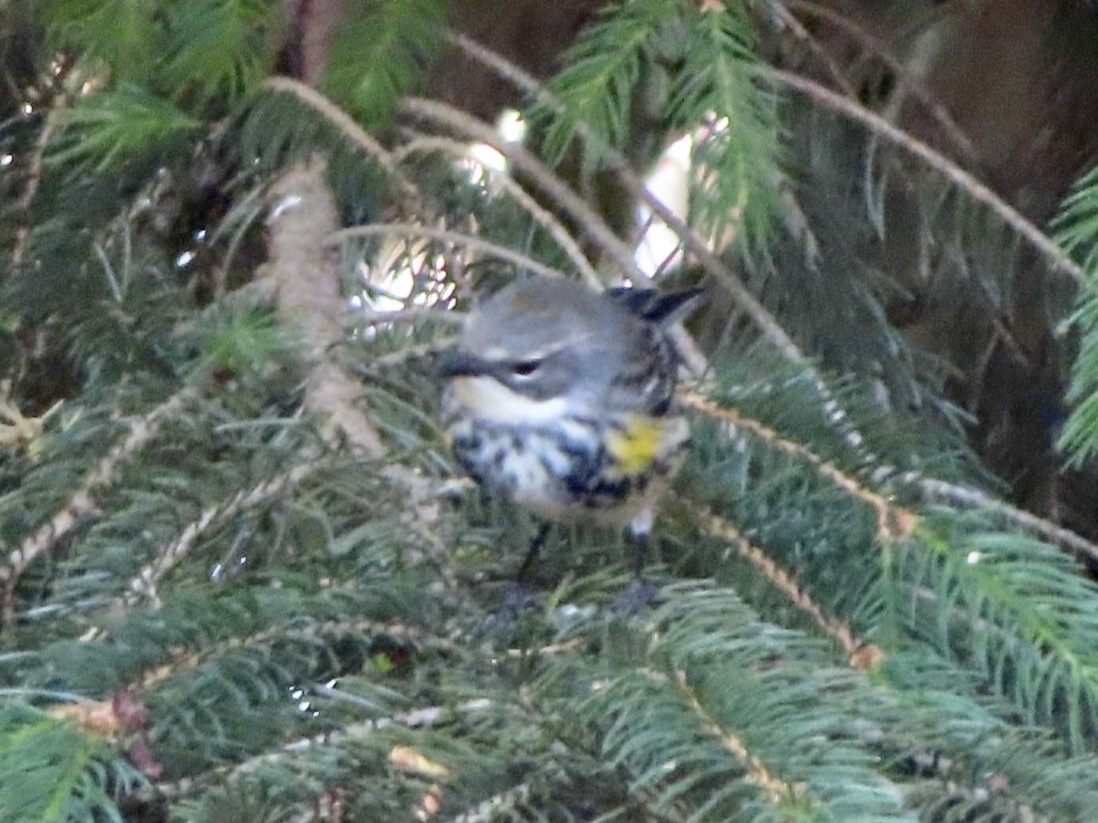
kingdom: Animalia
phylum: Chordata
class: Aves
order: Passeriformes
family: Parulidae
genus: Setophaga
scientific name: Setophaga coronata
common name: Myrtle warbler
